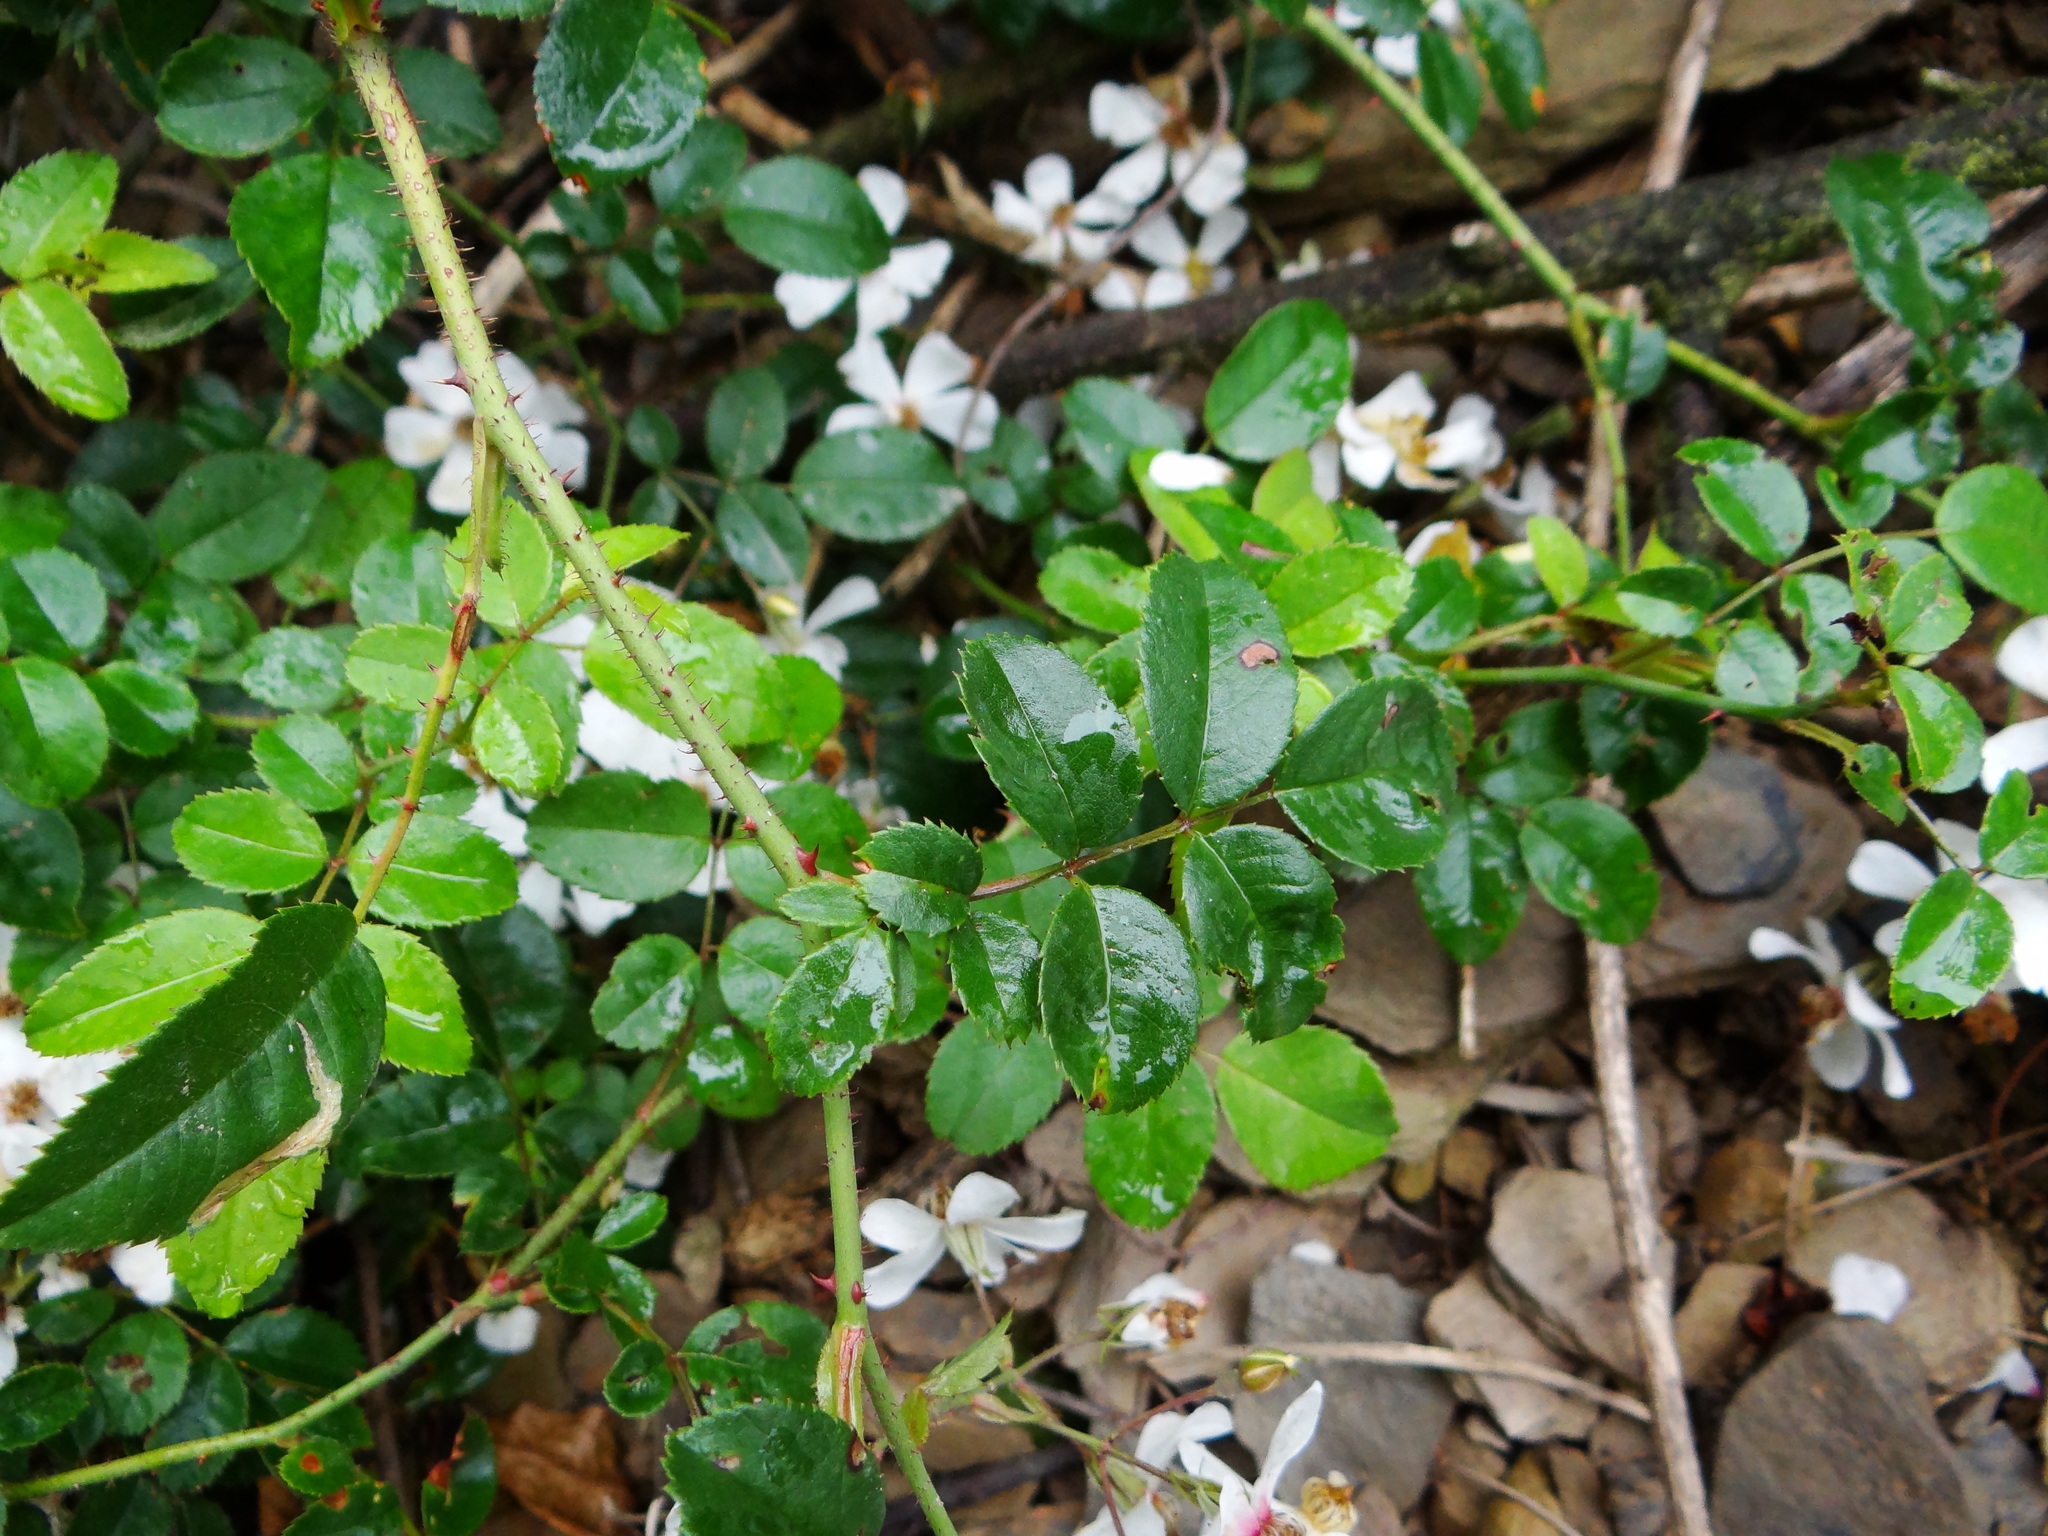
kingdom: Plantae
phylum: Tracheophyta
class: Magnoliopsida
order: Rosales
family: Rosaceae
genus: Rubus
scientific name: Rubus niveus
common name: Snowpeaks raspberry
